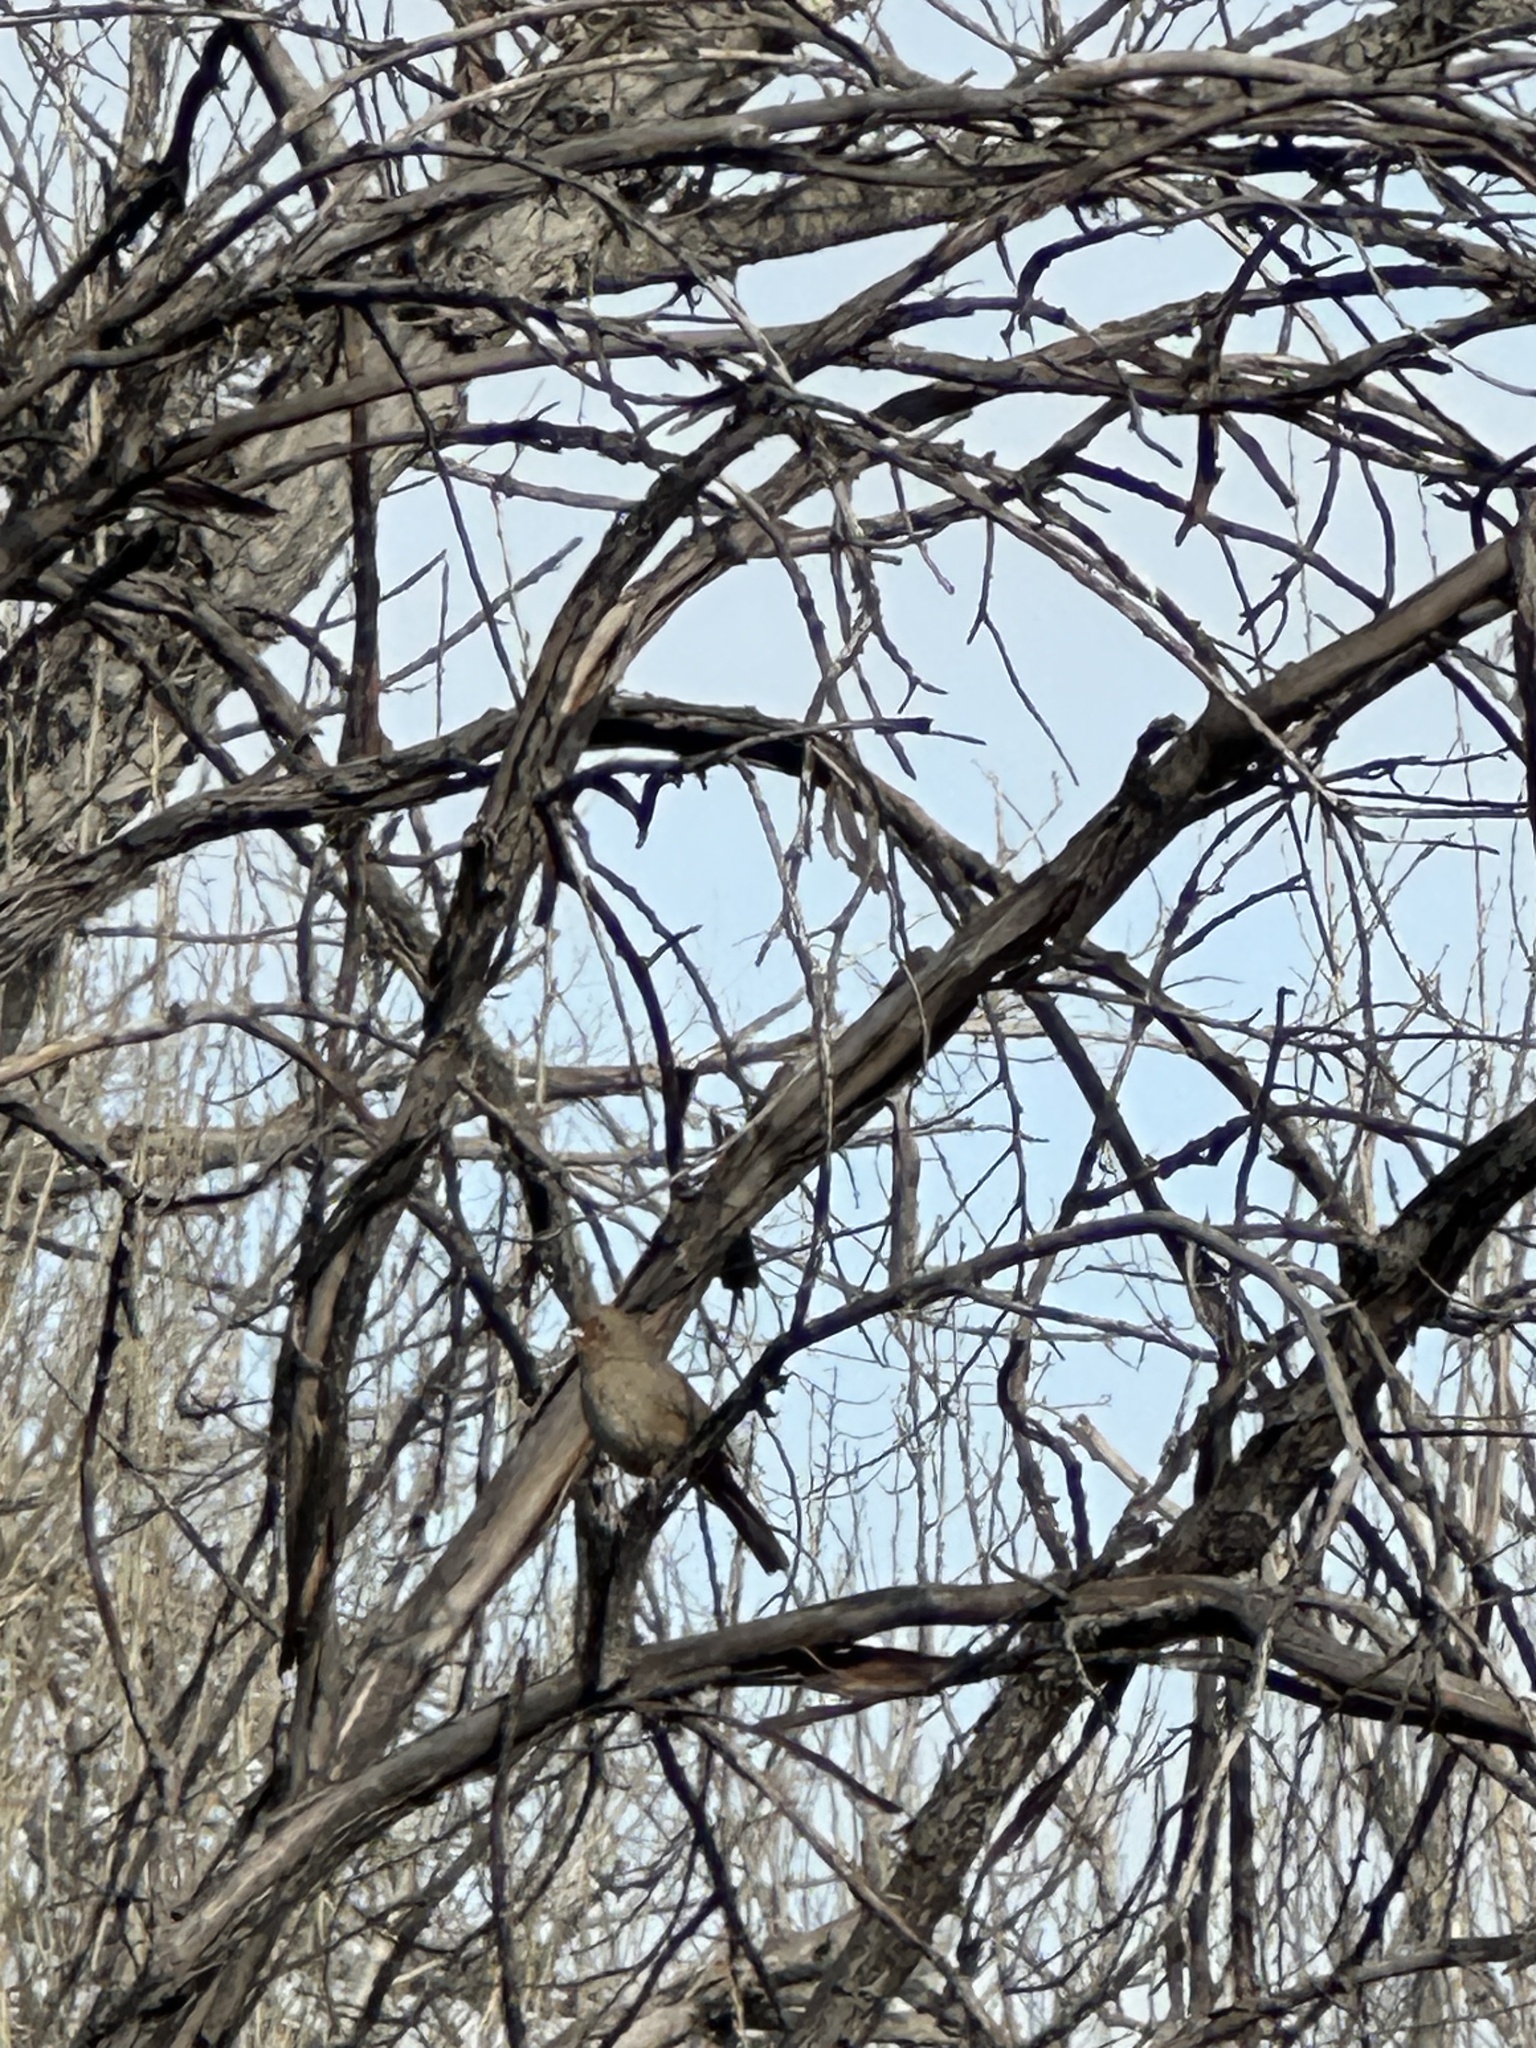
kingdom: Animalia
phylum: Chordata
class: Aves
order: Passeriformes
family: Passerellidae
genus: Melozone
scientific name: Melozone crissalis
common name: California towhee
